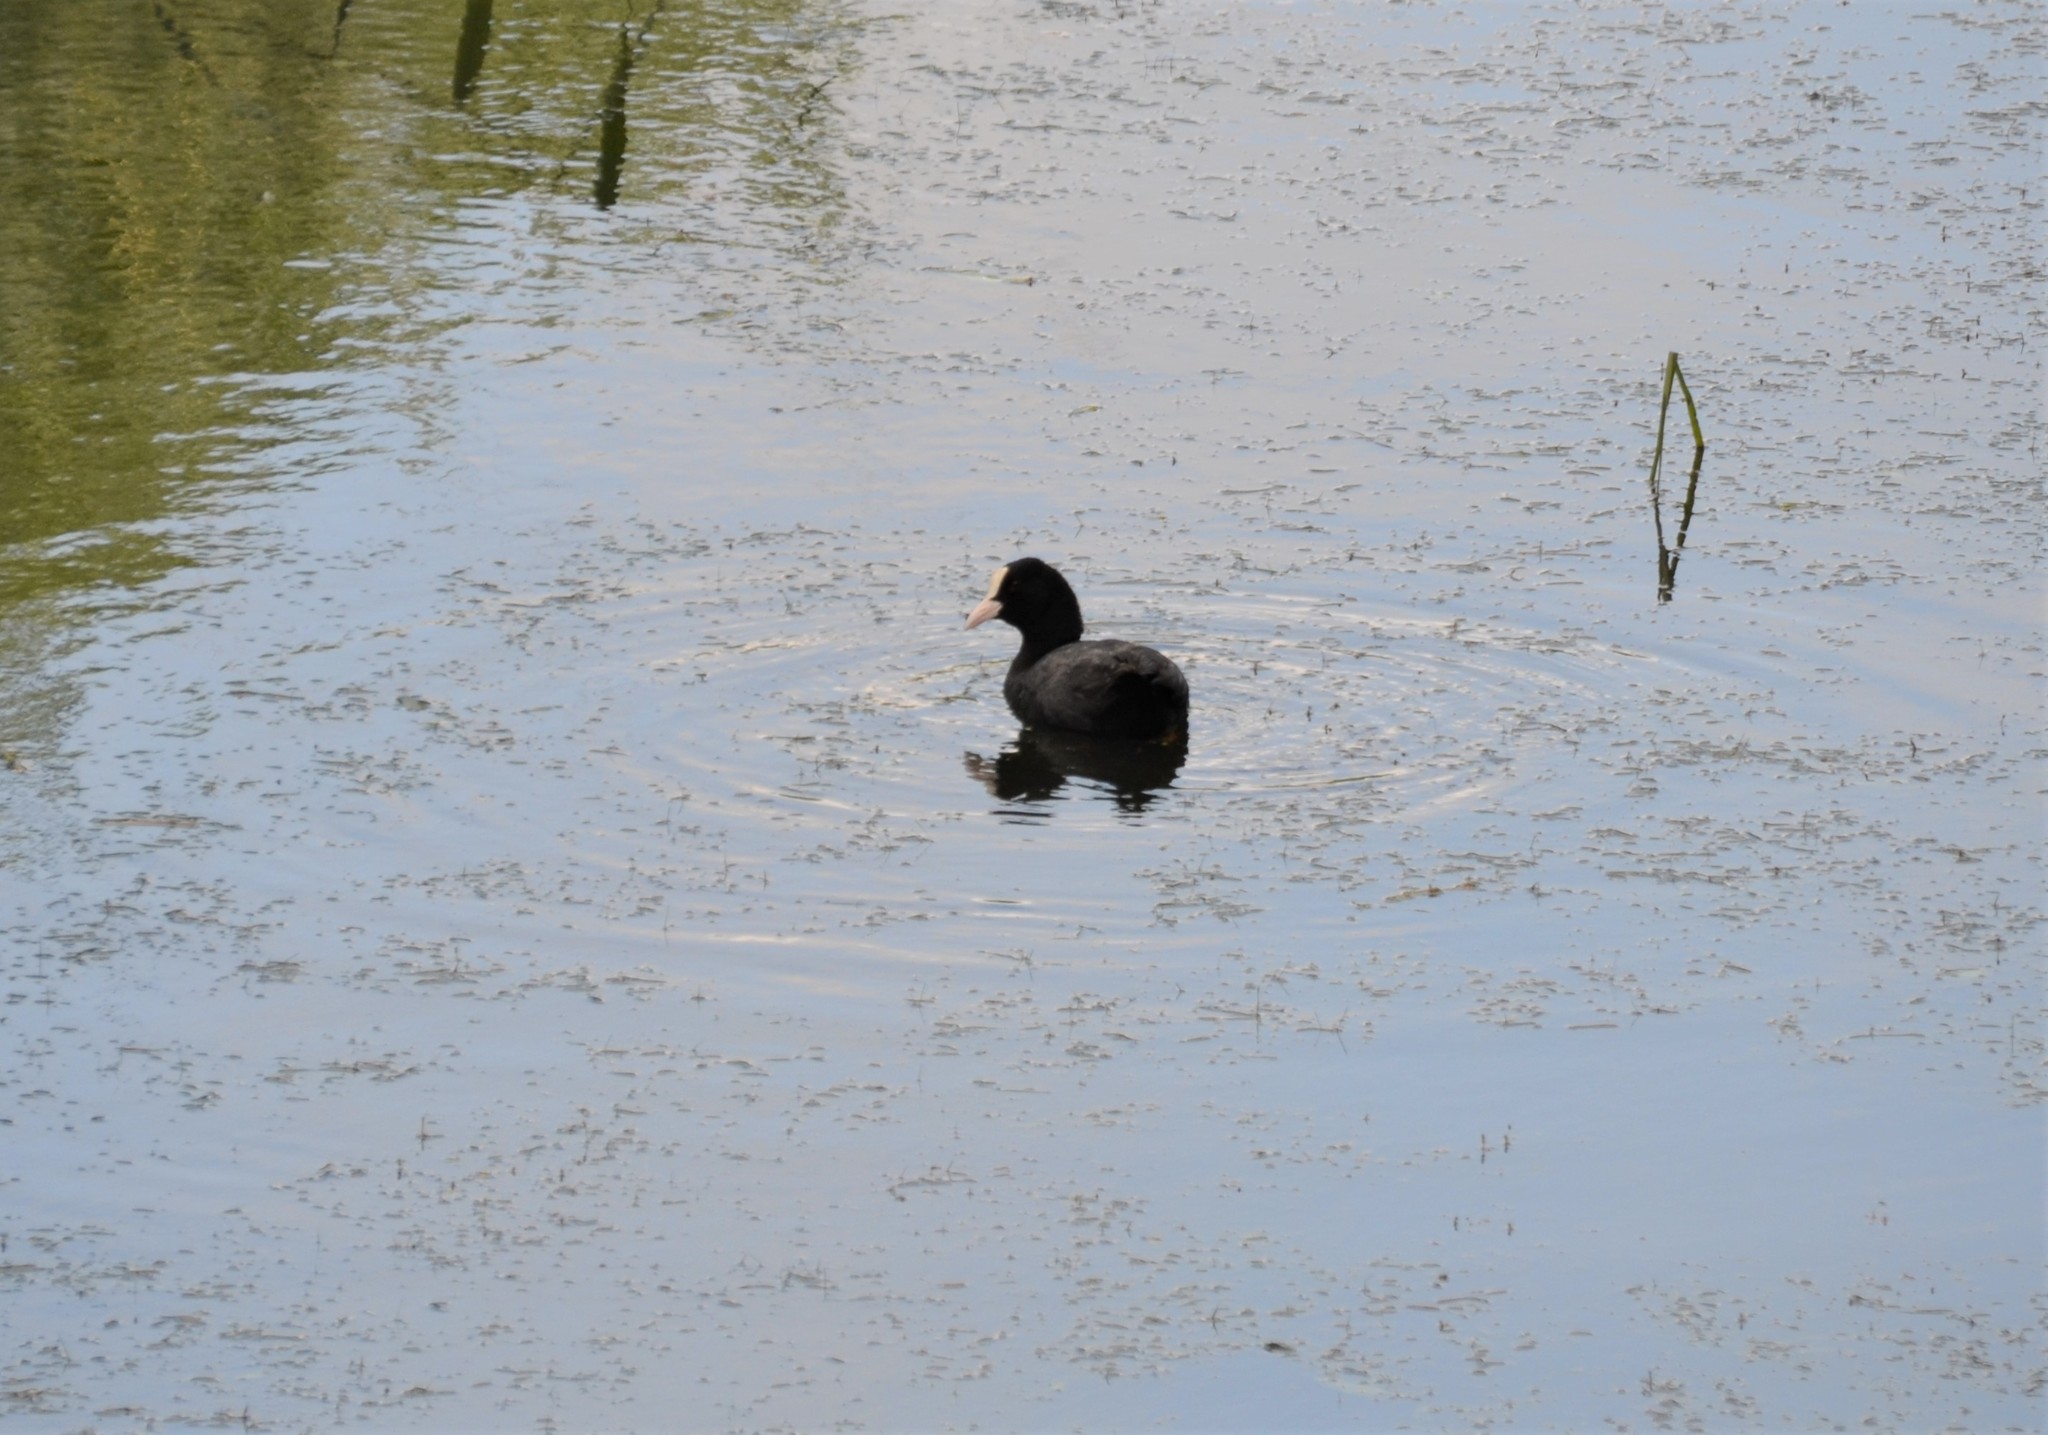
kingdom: Animalia
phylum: Chordata
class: Aves
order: Gruiformes
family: Rallidae
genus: Fulica
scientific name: Fulica atra
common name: Eurasian coot
